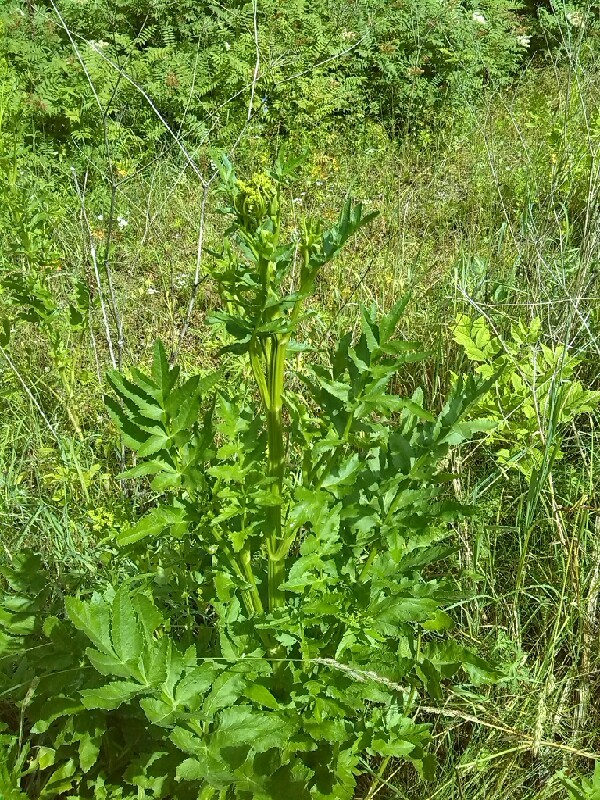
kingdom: Plantae
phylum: Tracheophyta
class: Magnoliopsida
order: Apiales
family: Apiaceae
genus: Pastinaca
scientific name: Pastinaca sativa
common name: Wild parsnip
